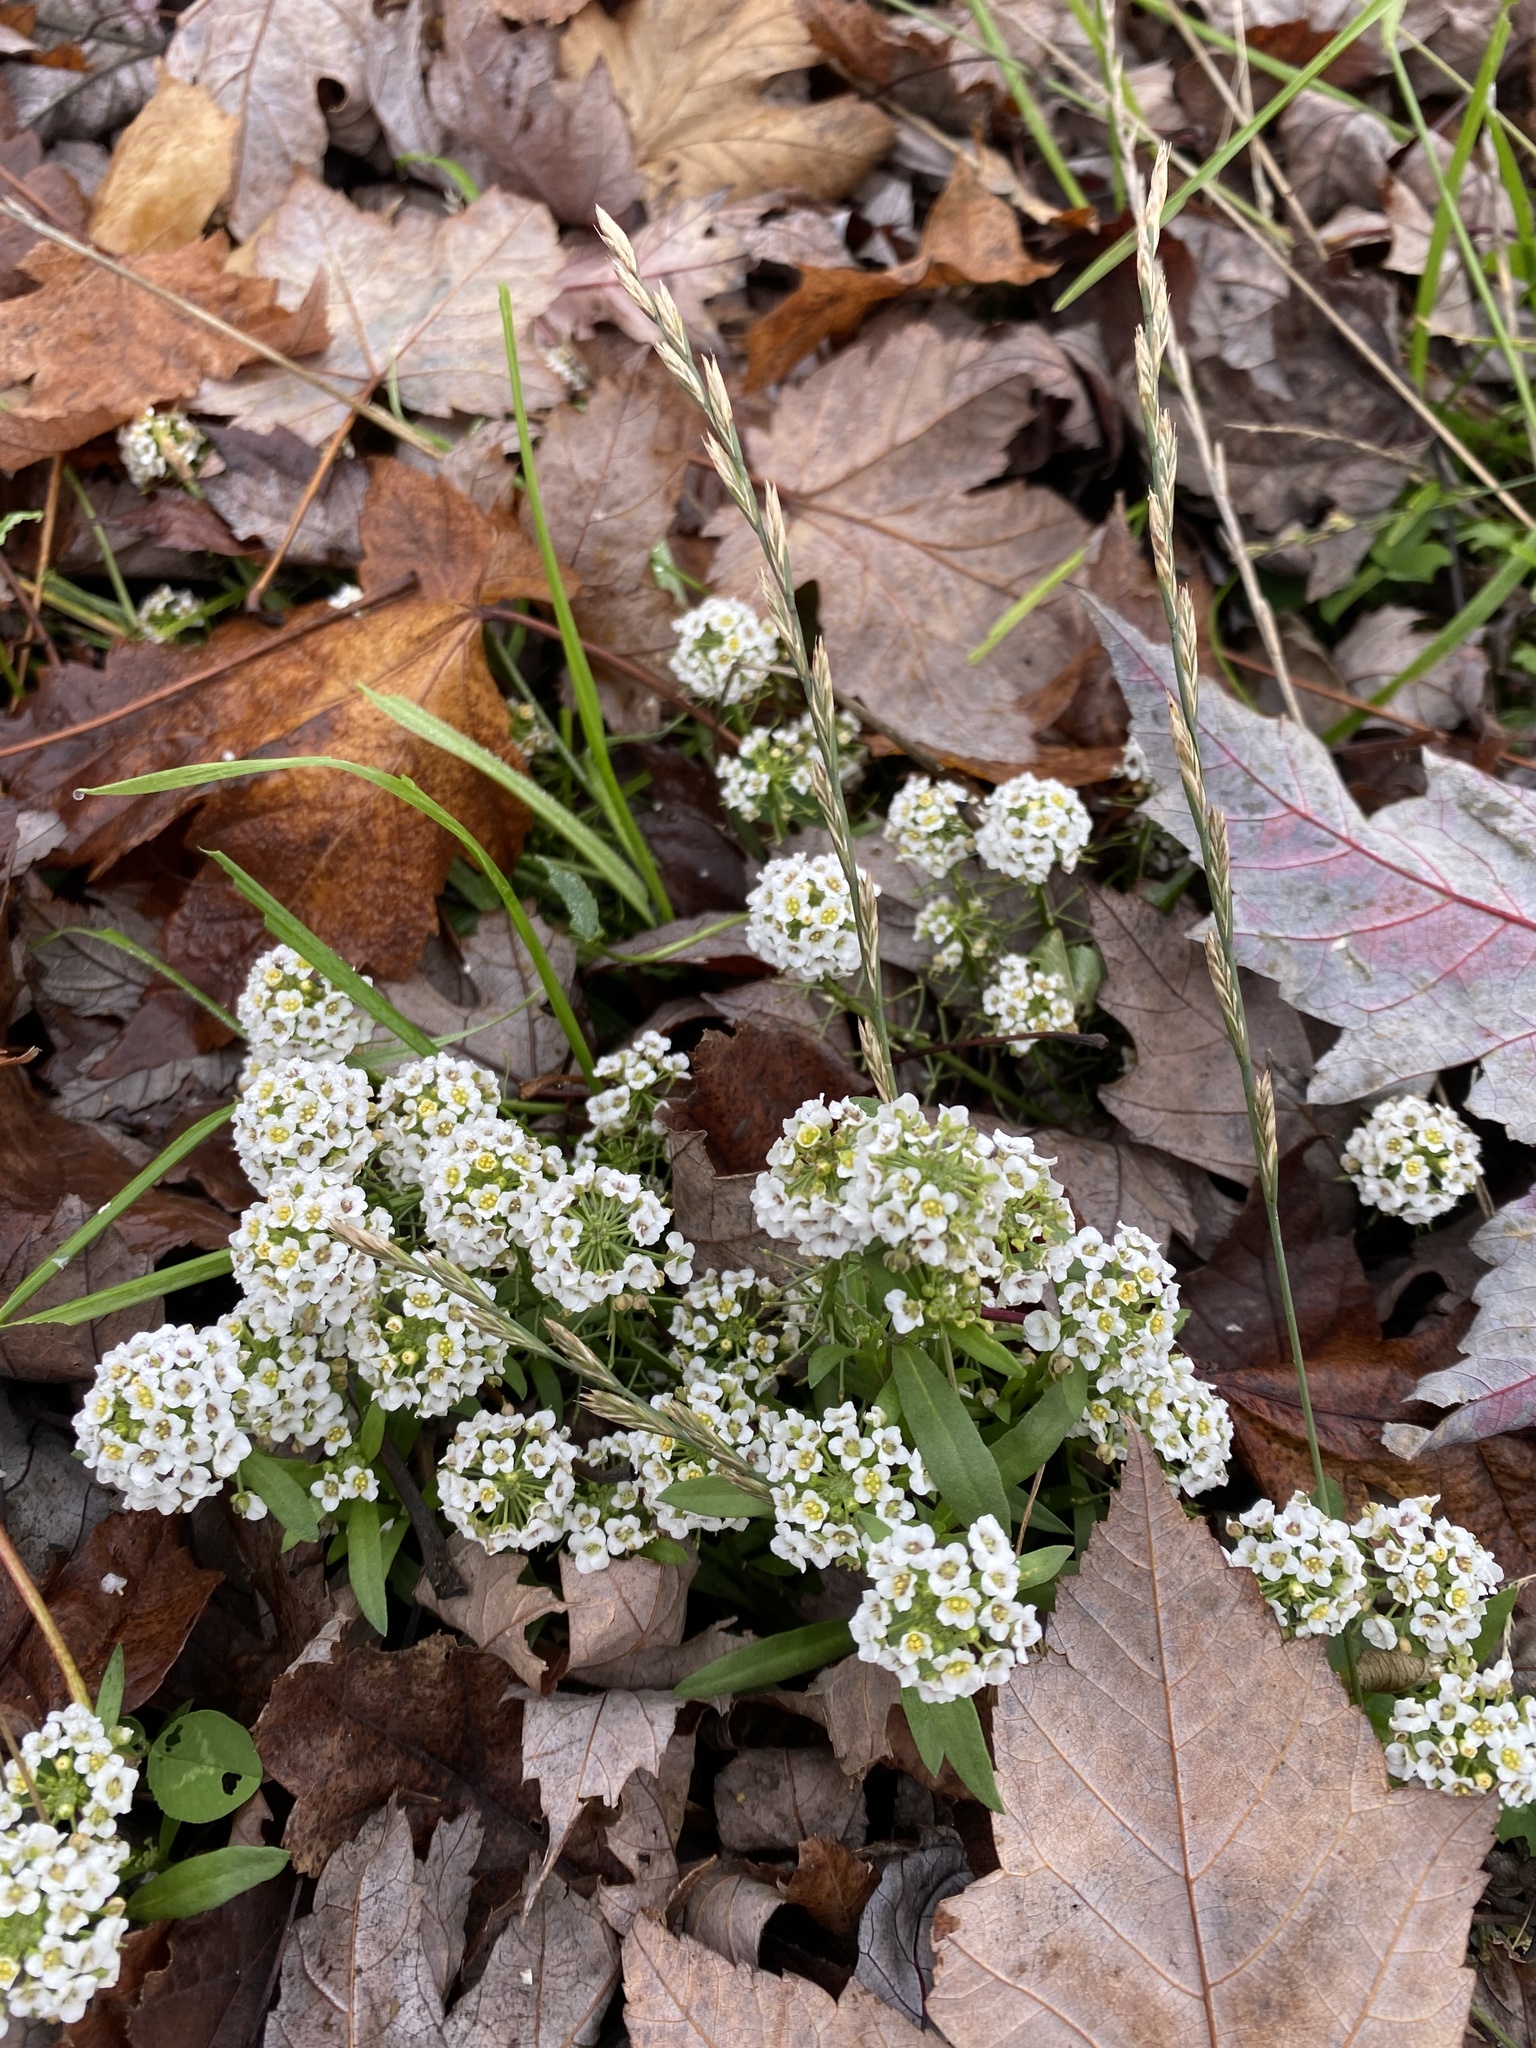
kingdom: Plantae
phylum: Tracheophyta
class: Magnoliopsida
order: Brassicales
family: Brassicaceae
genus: Lobularia
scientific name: Lobularia maritima
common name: Sweet alison
